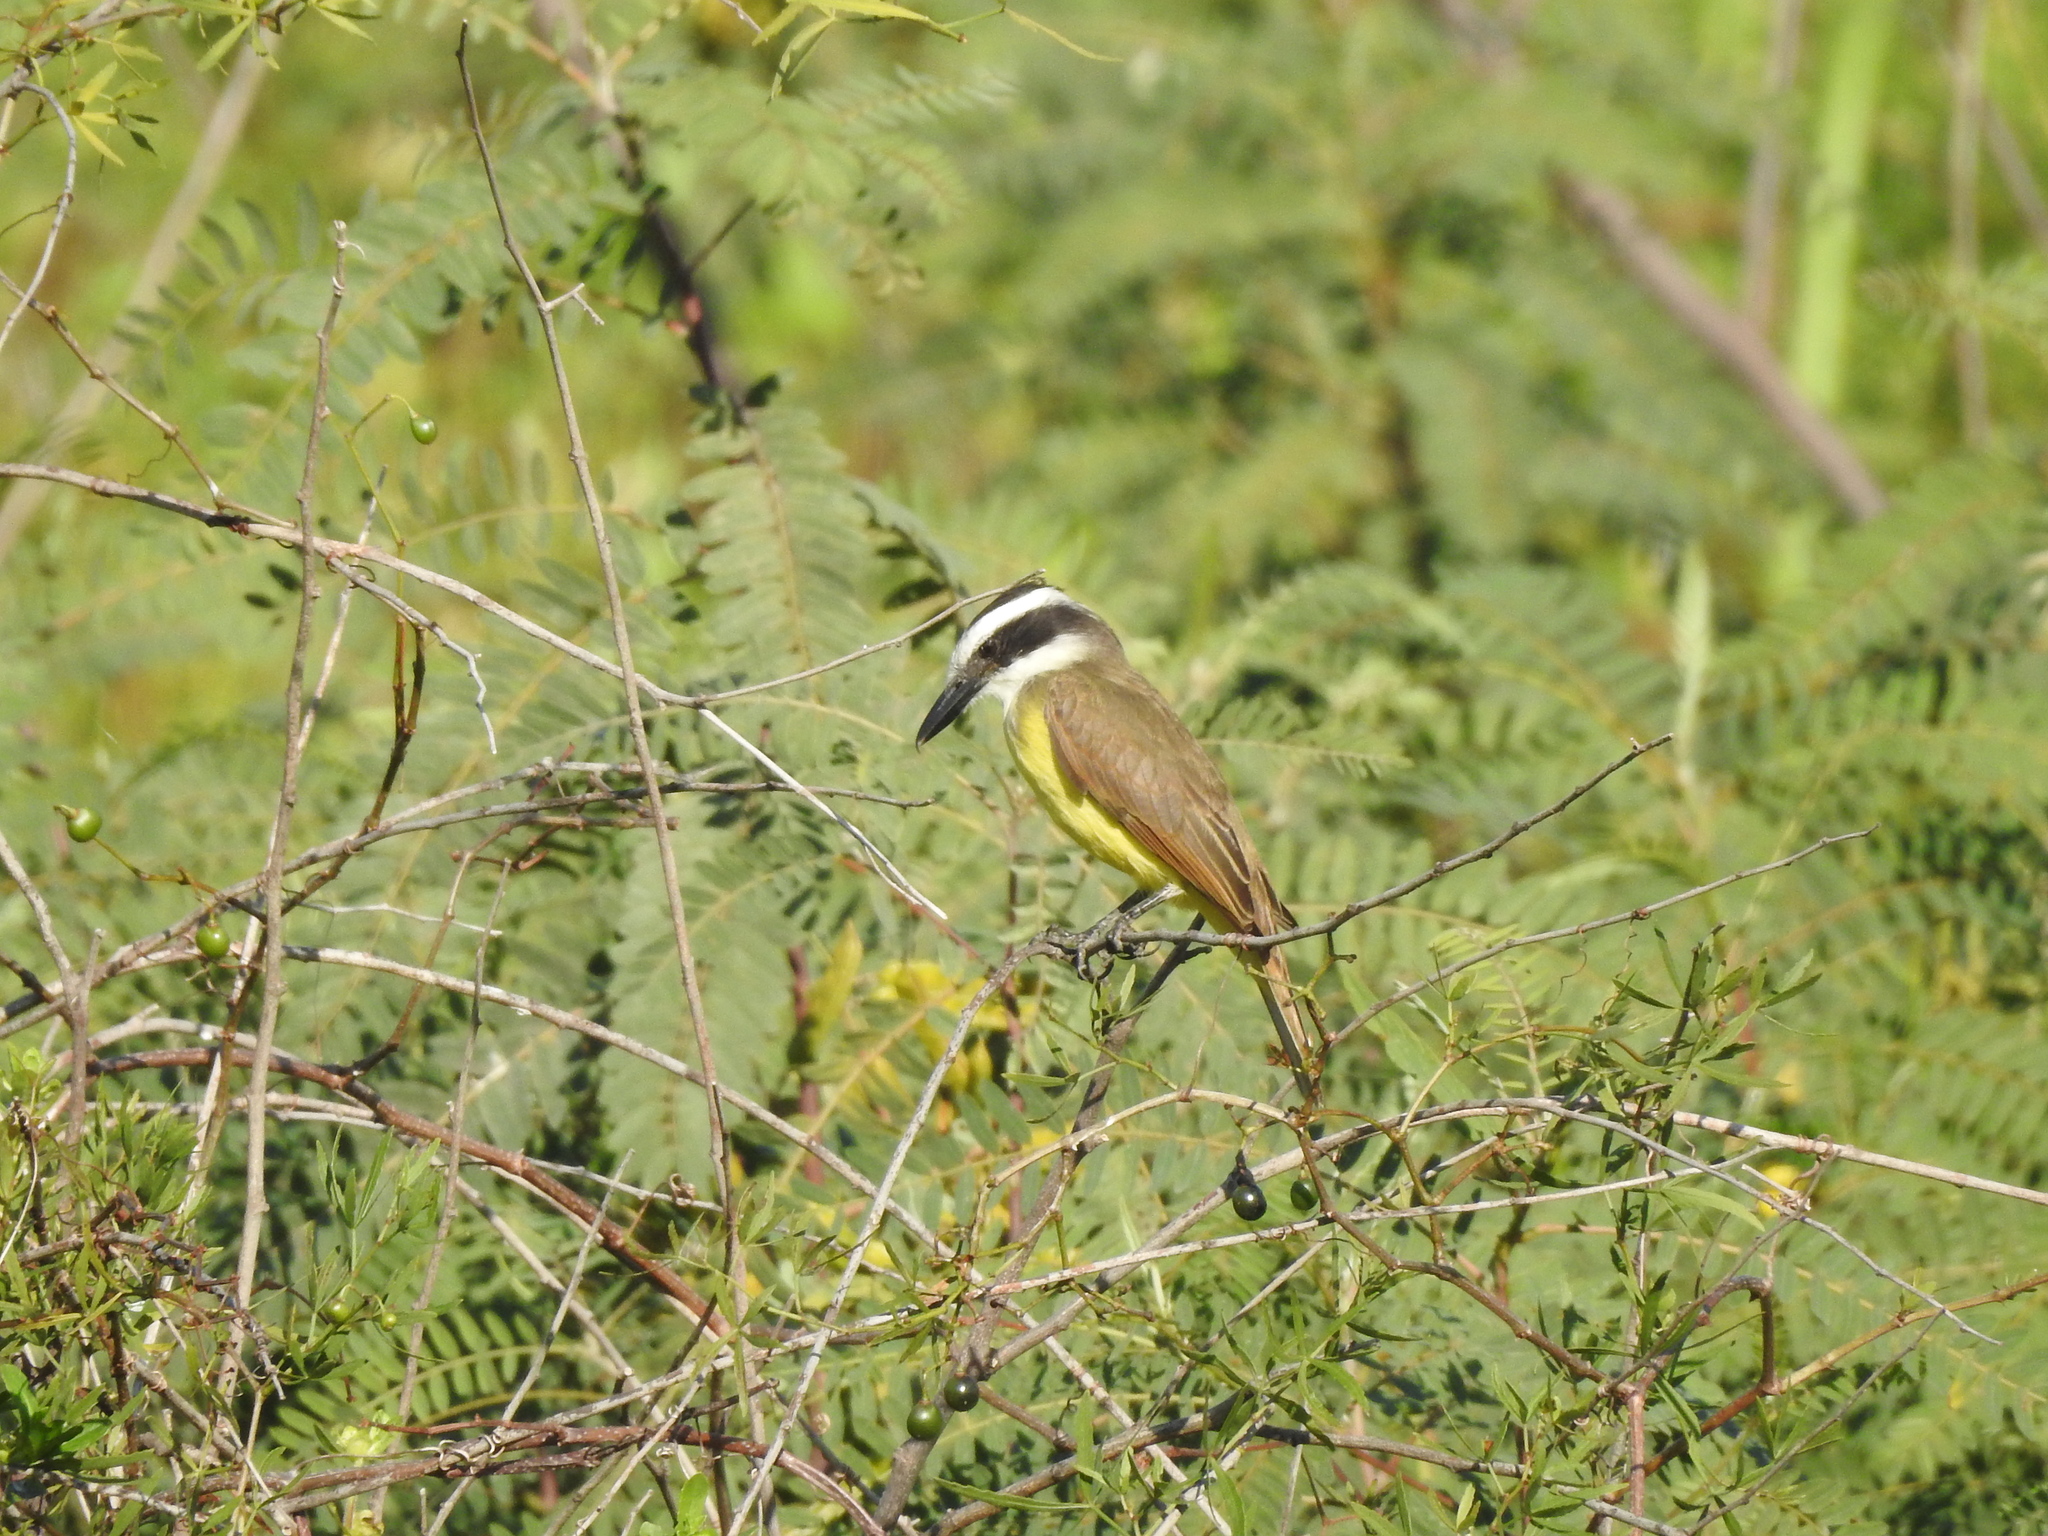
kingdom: Animalia
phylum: Chordata
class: Aves
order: Passeriformes
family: Tyrannidae
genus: Pitangus
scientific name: Pitangus sulphuratus
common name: Great kiskadee
